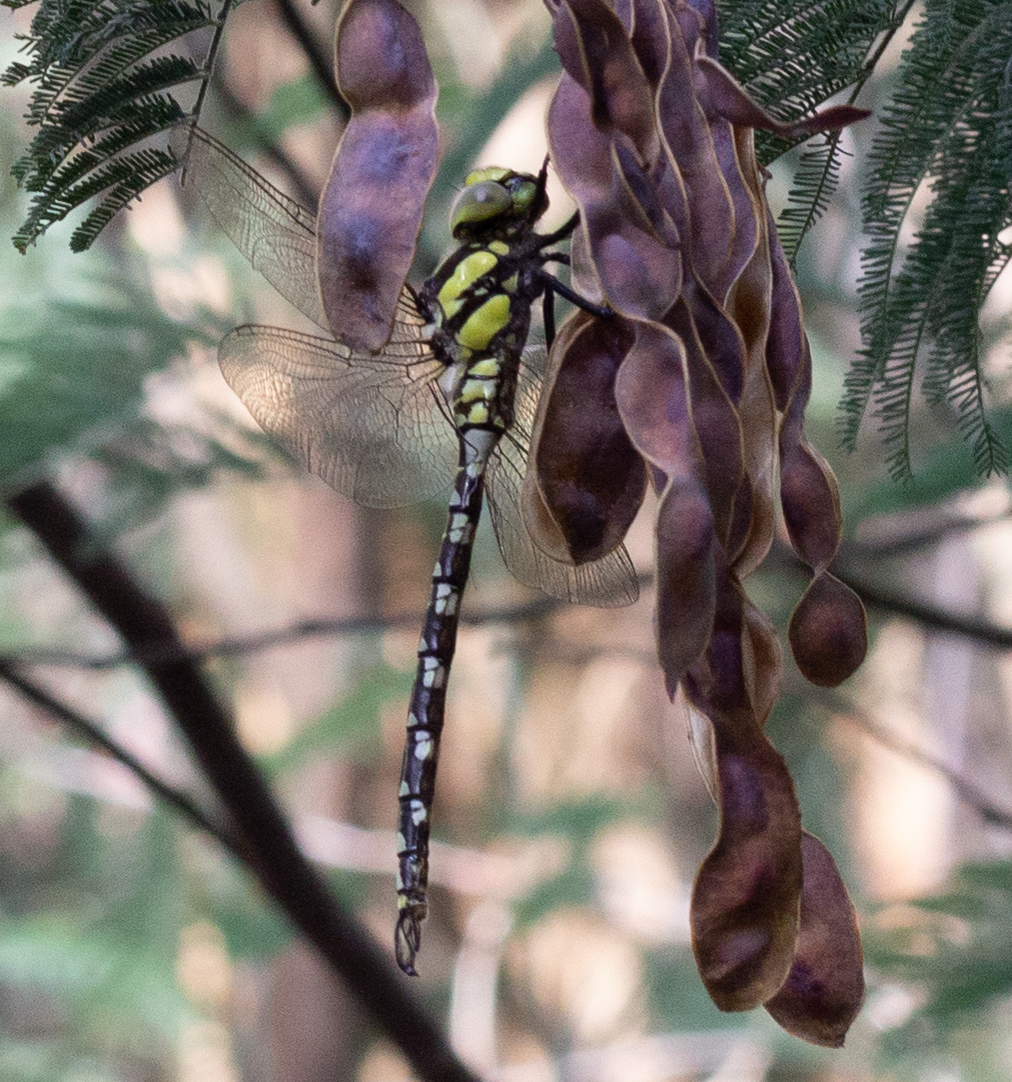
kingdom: Animalia
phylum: Arthropoda
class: Insecta
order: Odonata
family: Aeshnidae
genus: Aeshna
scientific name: Aeshna cyanea
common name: Southern hawker
